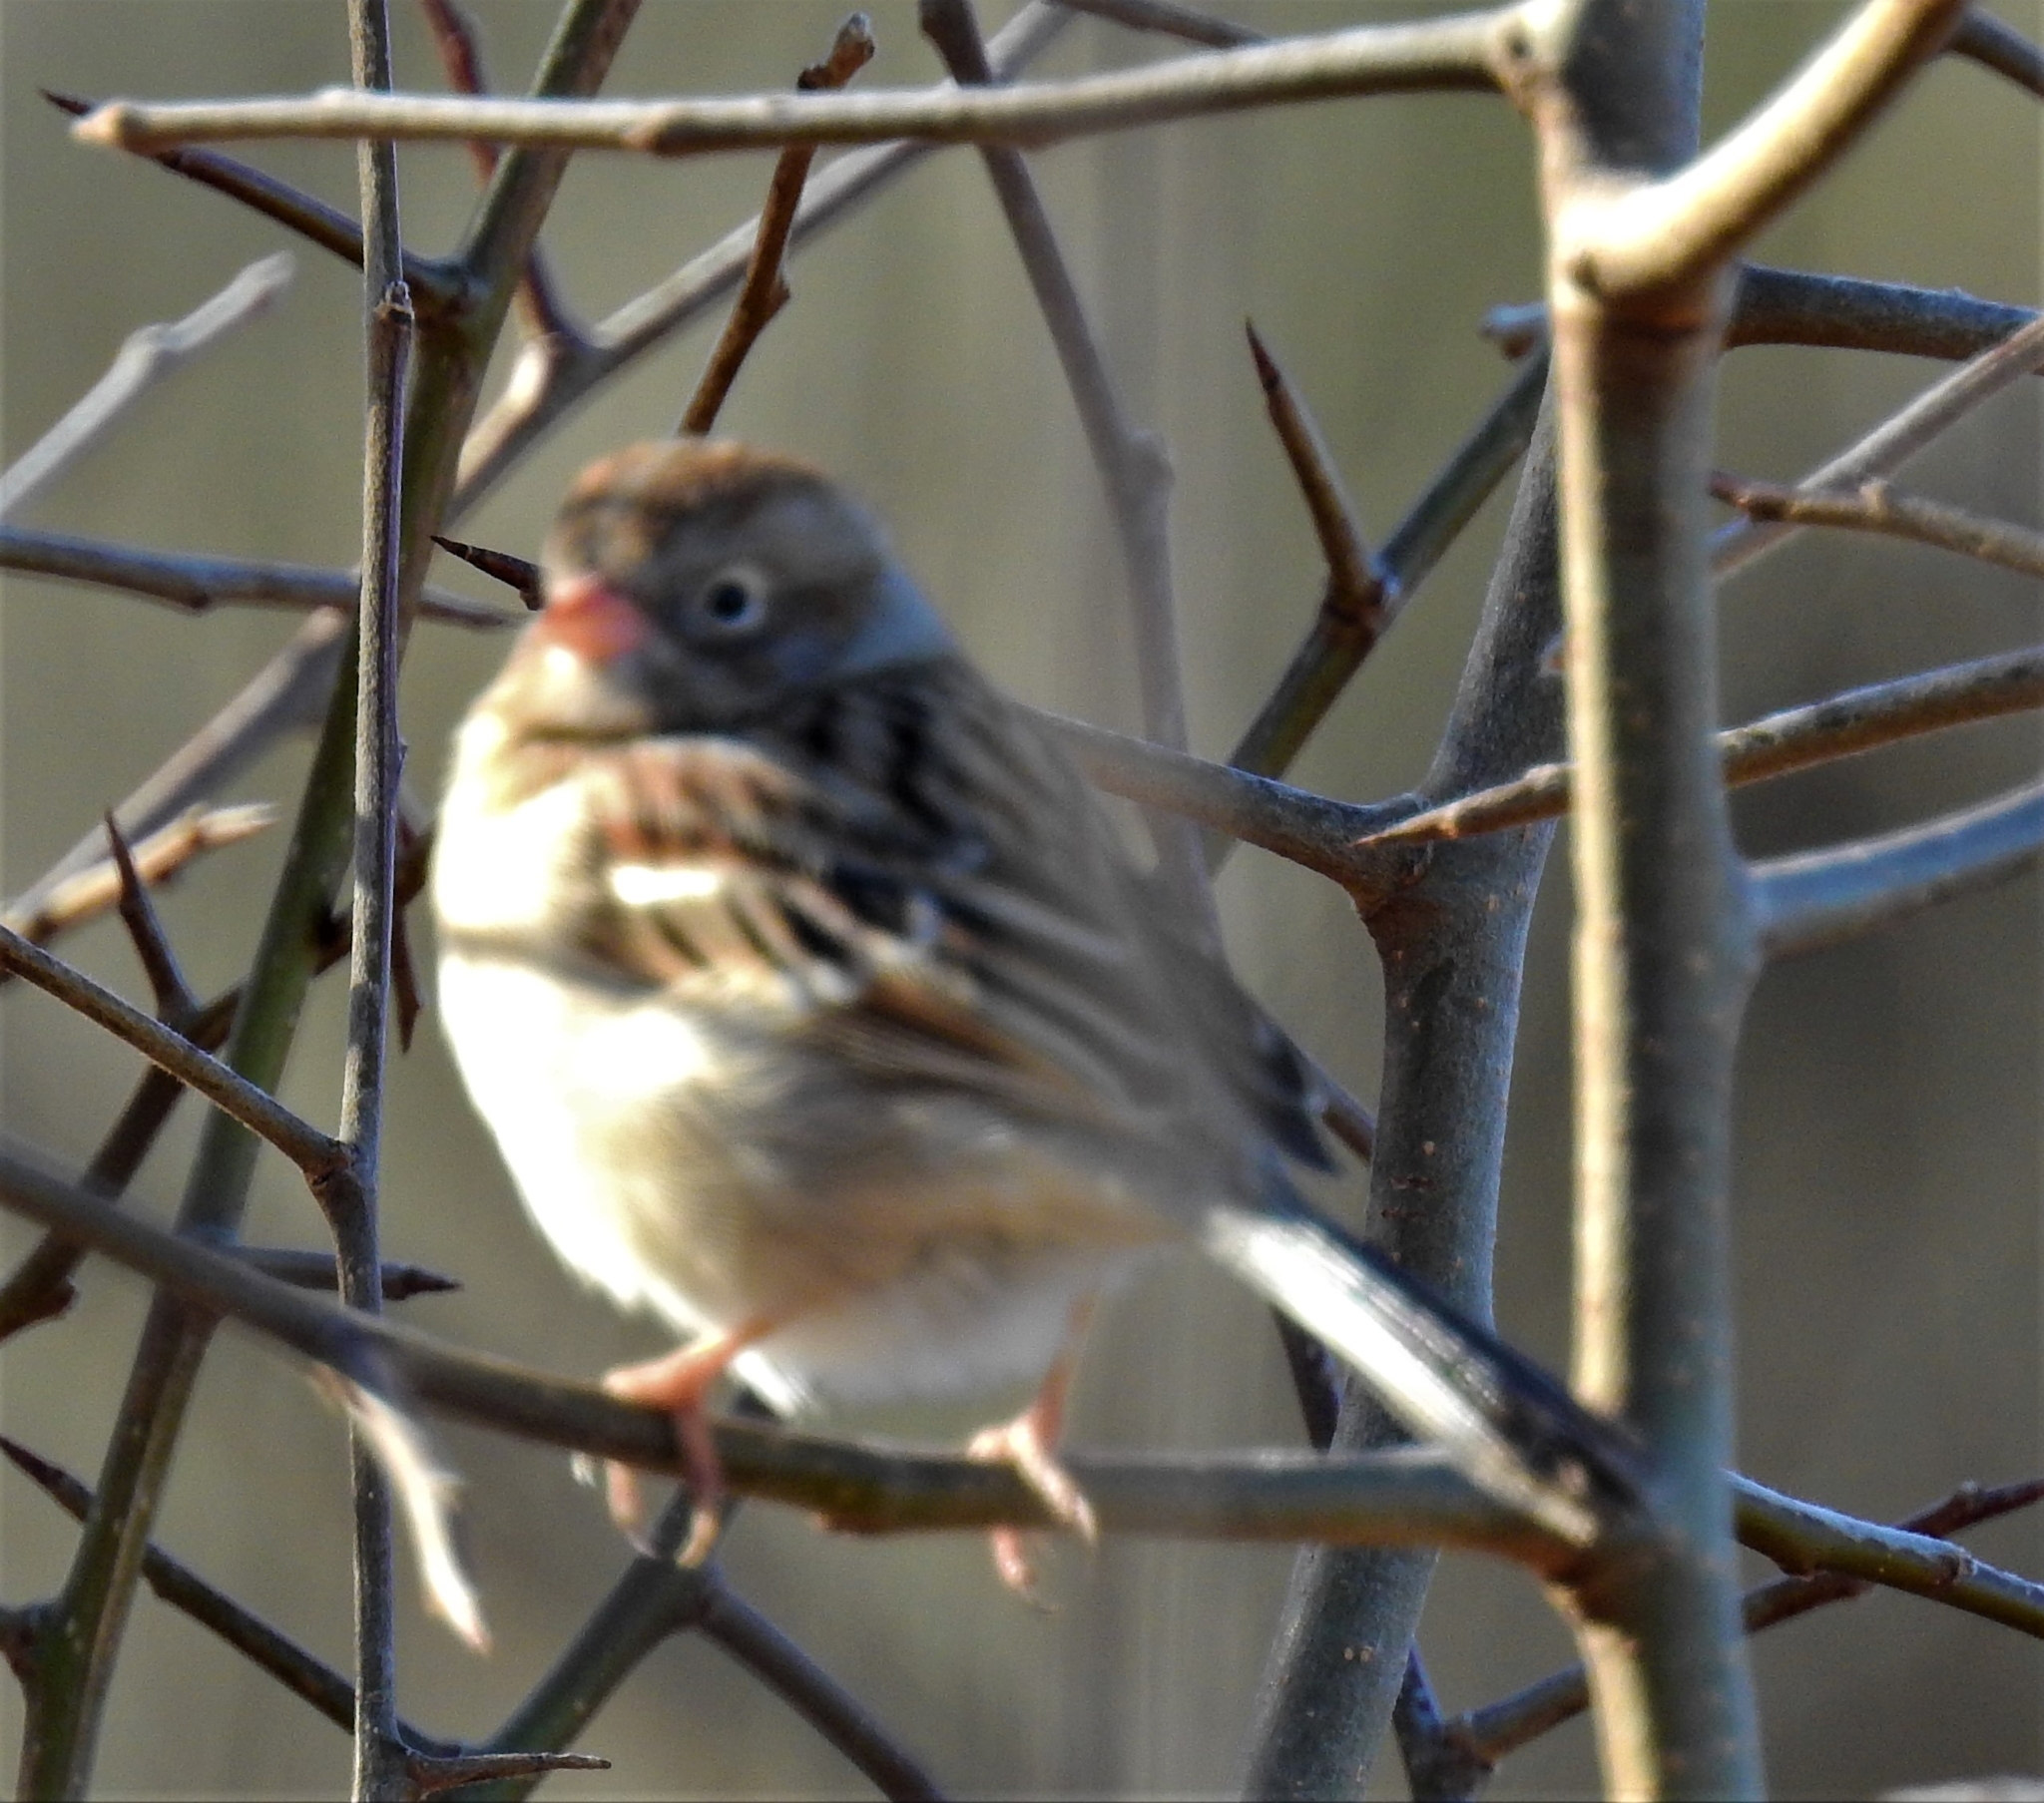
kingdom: Animalia
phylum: Chordata
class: Aves
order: Passeriformes
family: Passerellidae
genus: Spizella
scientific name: Spizella pusilla
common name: Field sparrow
